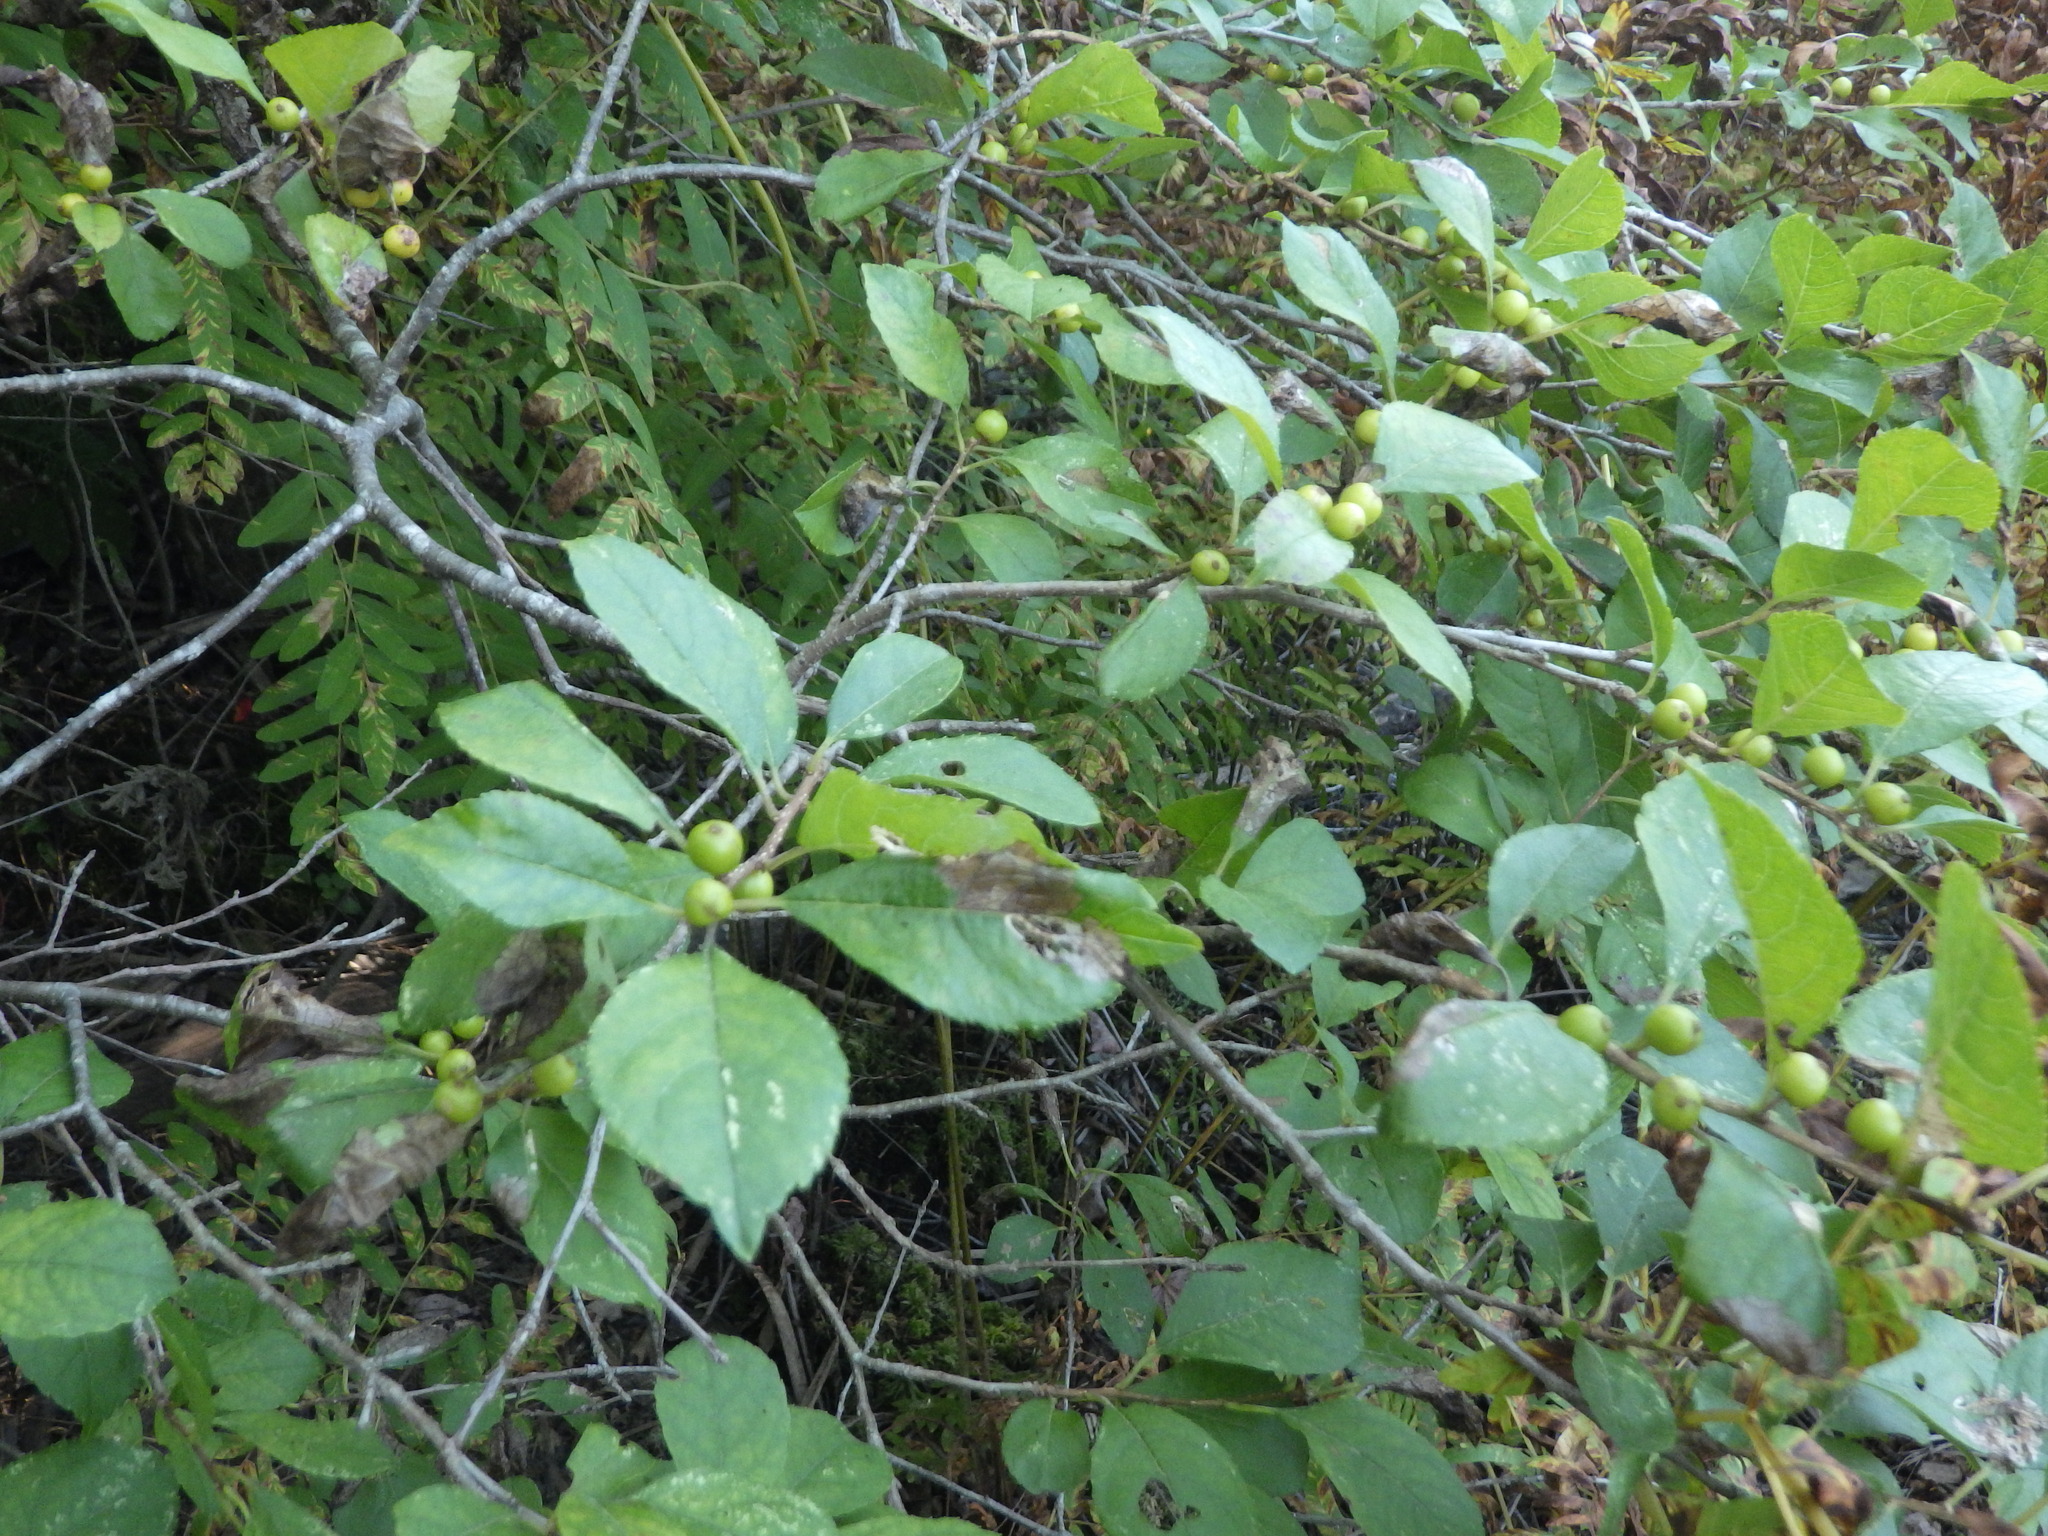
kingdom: Plantae
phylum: Tracheophyta
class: Magnoliopsida
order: Aquifoliales
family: Aquifoliaceae
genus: Ilex
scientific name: Ilex verticillata
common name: Virginia winterberry
